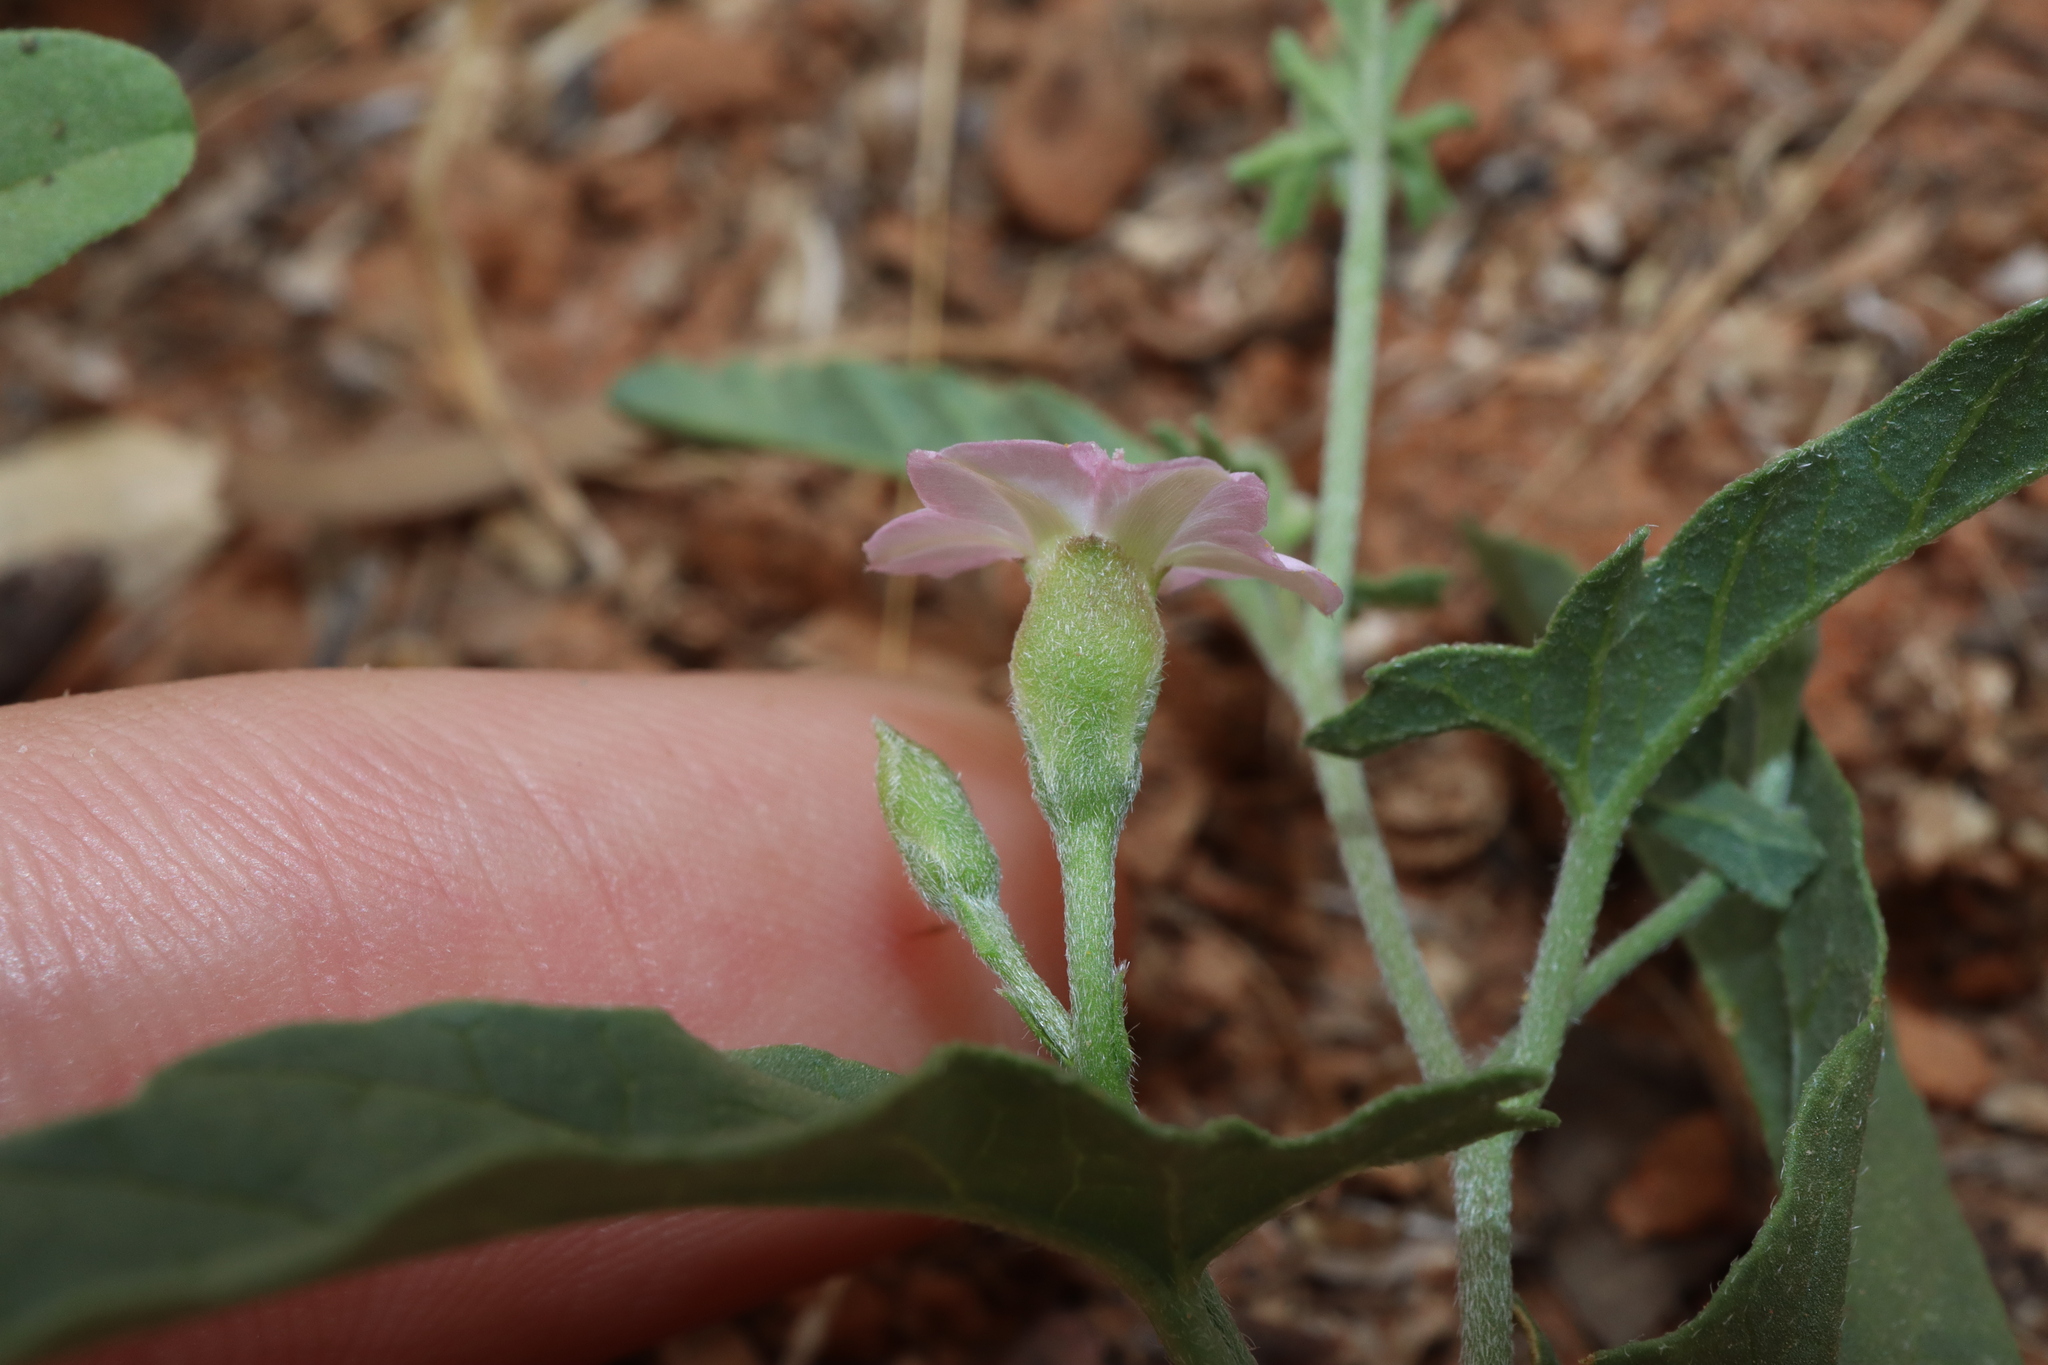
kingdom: Plantae
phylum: Tracheophyta
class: Magnoliopsida
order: Solanales
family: Convolvulaceae
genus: Convolvulus
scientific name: Convolvulus remotus
